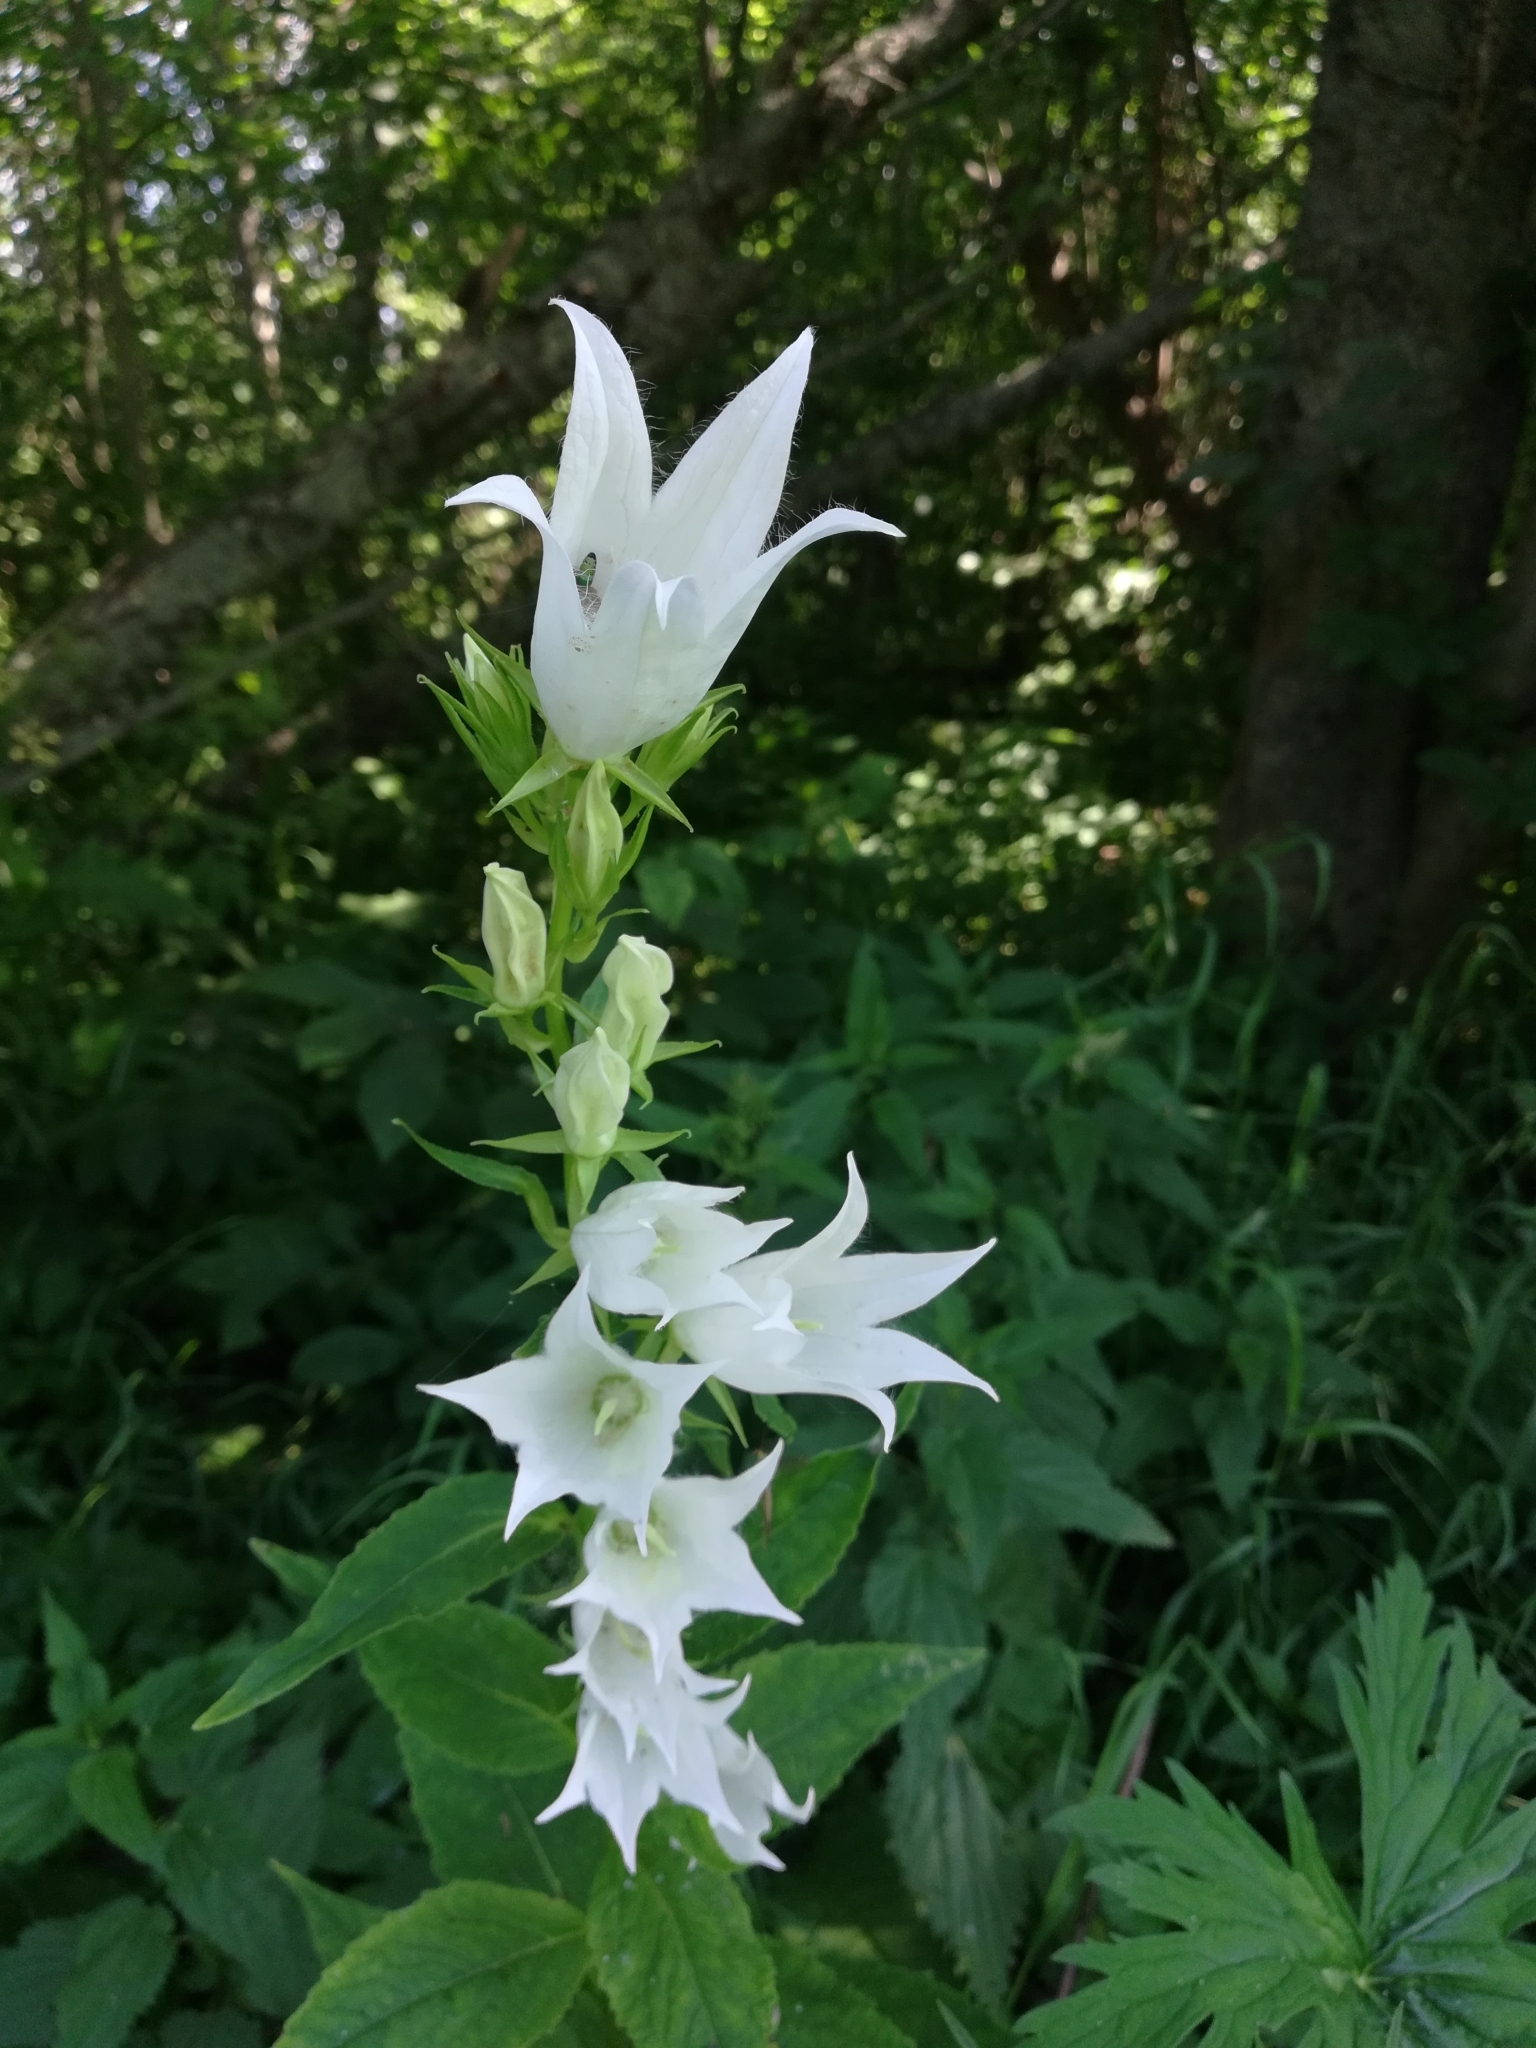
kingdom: Plantae
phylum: Tracheophyta
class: Magnoliopsida
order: Asterales
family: Campanulaceae
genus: Campanula
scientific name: Campanula latifolia
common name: Giant bellflower
